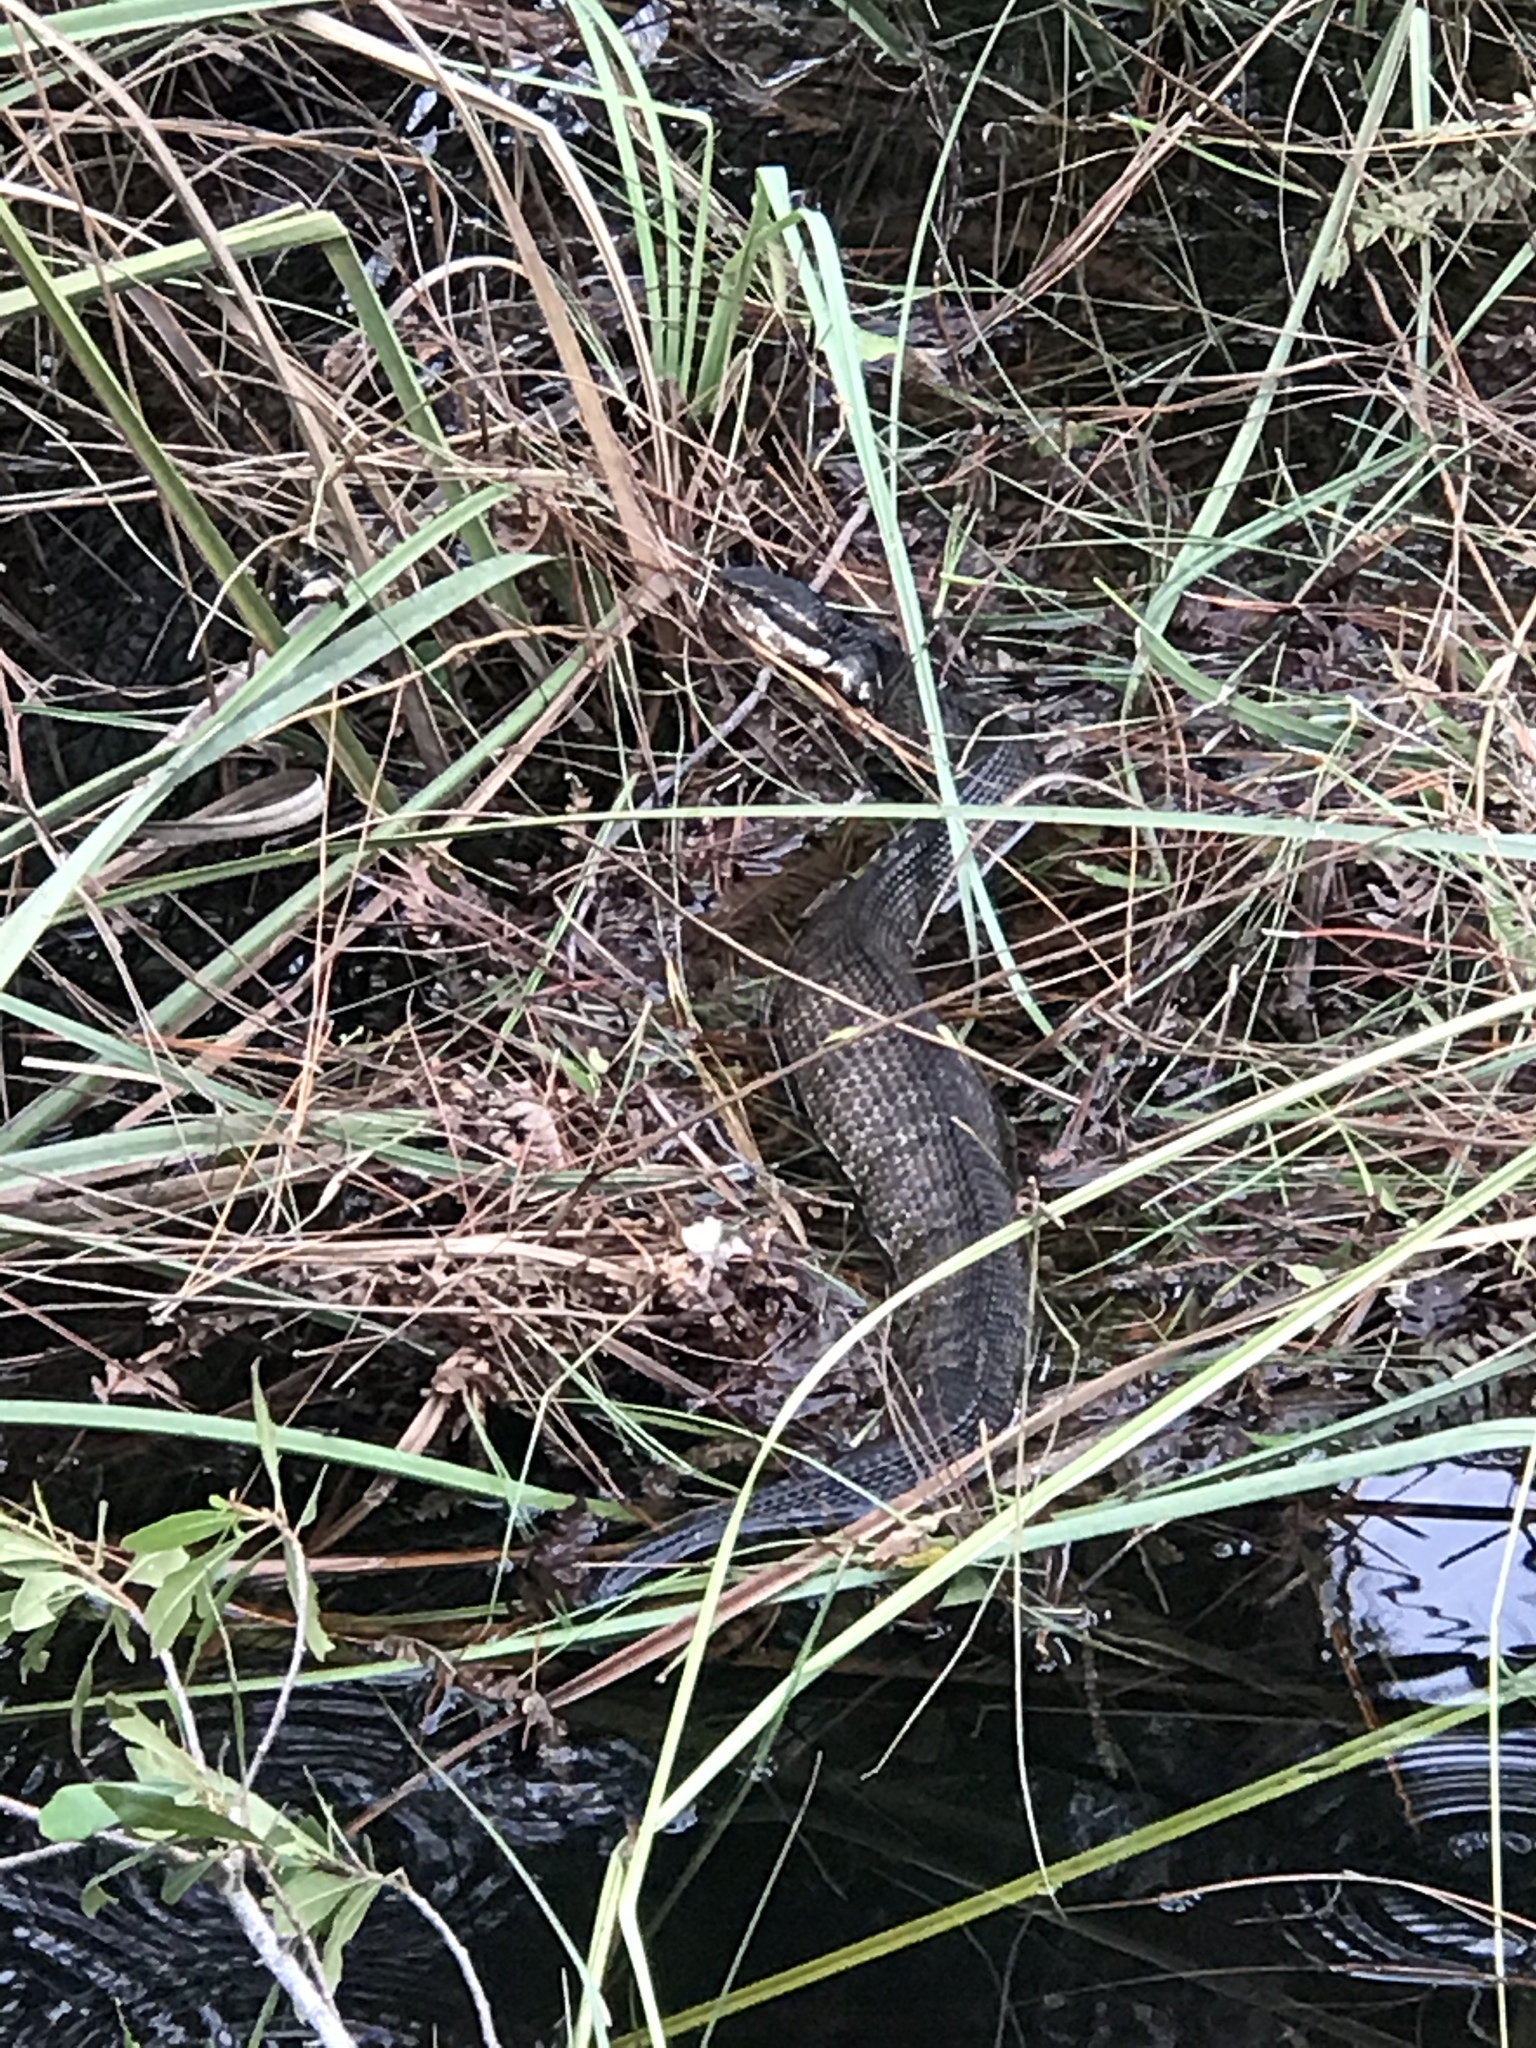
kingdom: Animalia
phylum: Chordata
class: Squamata
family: Viperidae
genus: Agkistrodon
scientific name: Agkistrodon piscivorus
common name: Cottonmouth
